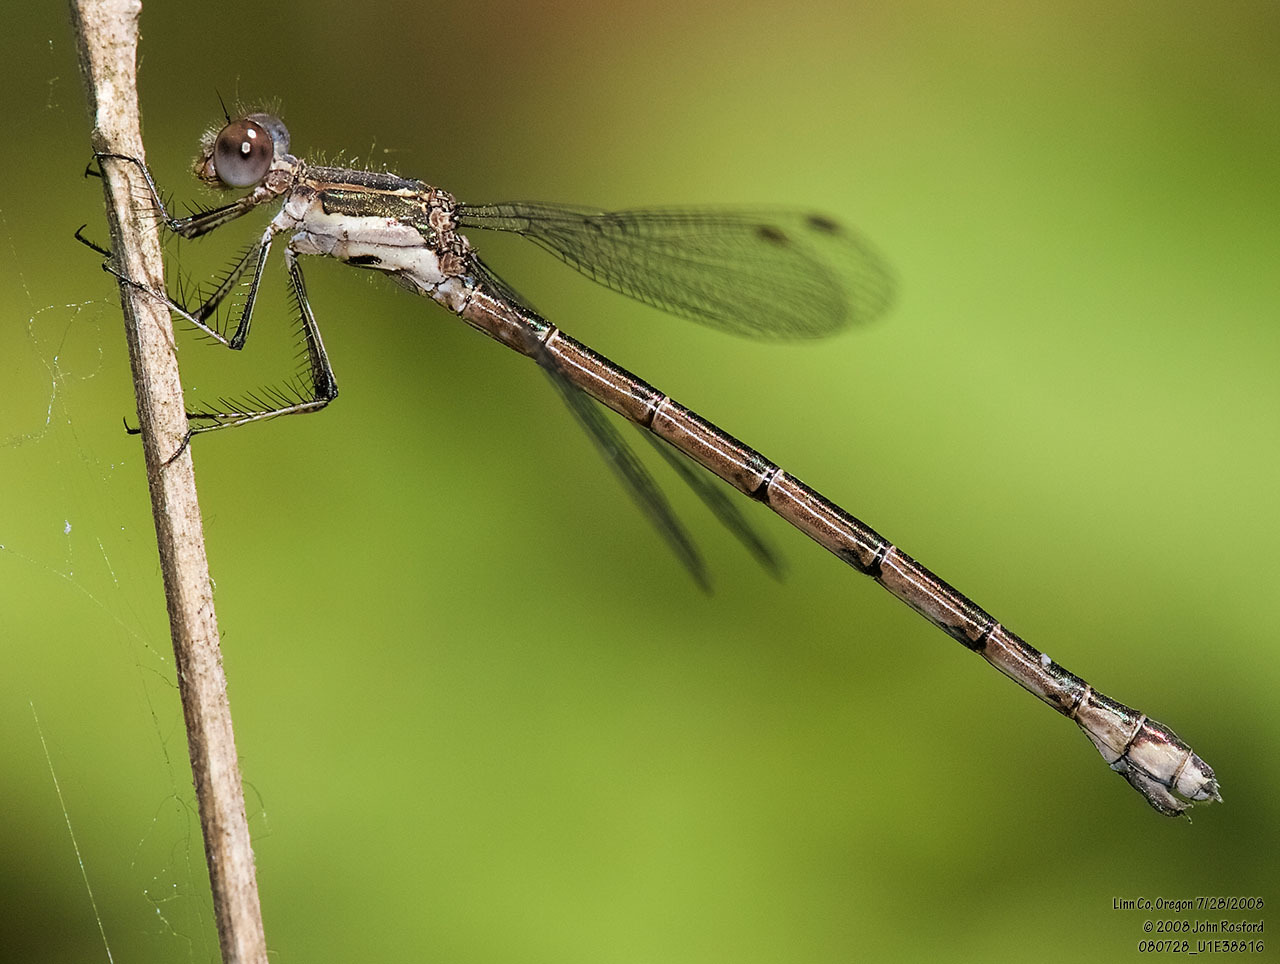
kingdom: Animalia
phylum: Arthropoda
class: Insecta
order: Odonata
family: Lestidae
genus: Lestes
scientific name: Lestes congener
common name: Spotted spreadwing
